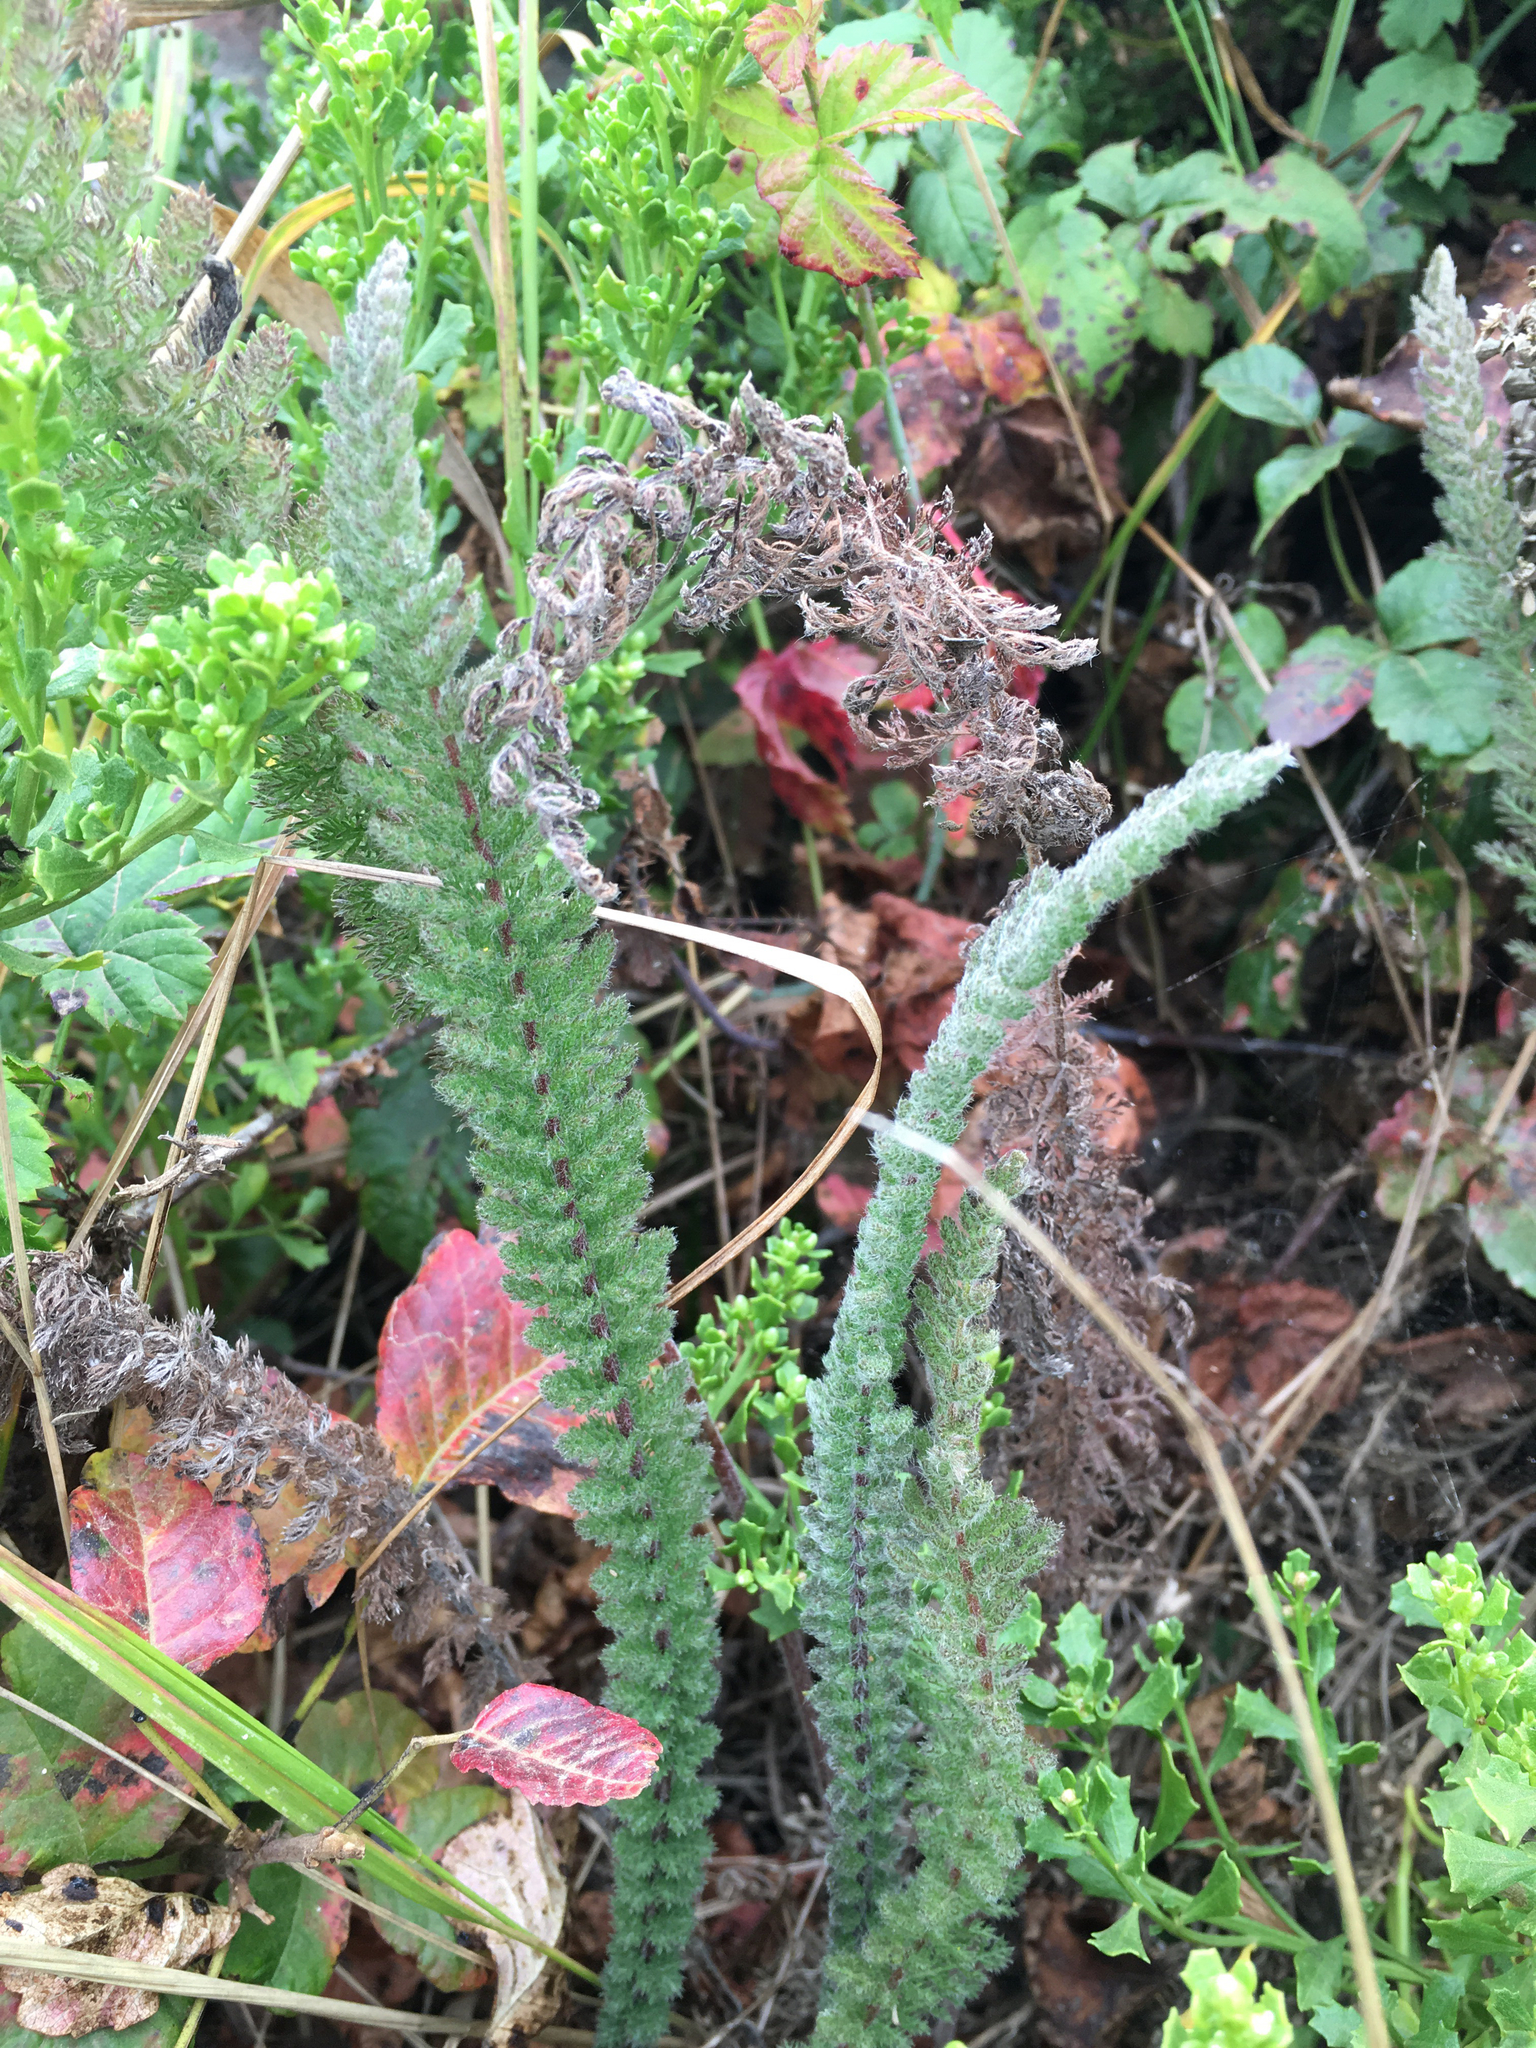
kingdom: Plantae
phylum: Tracheophyta
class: Magnoliopsida
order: Asterales
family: Asteraceae
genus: Achillea
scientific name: Achillea millefolium
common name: Yarrow
